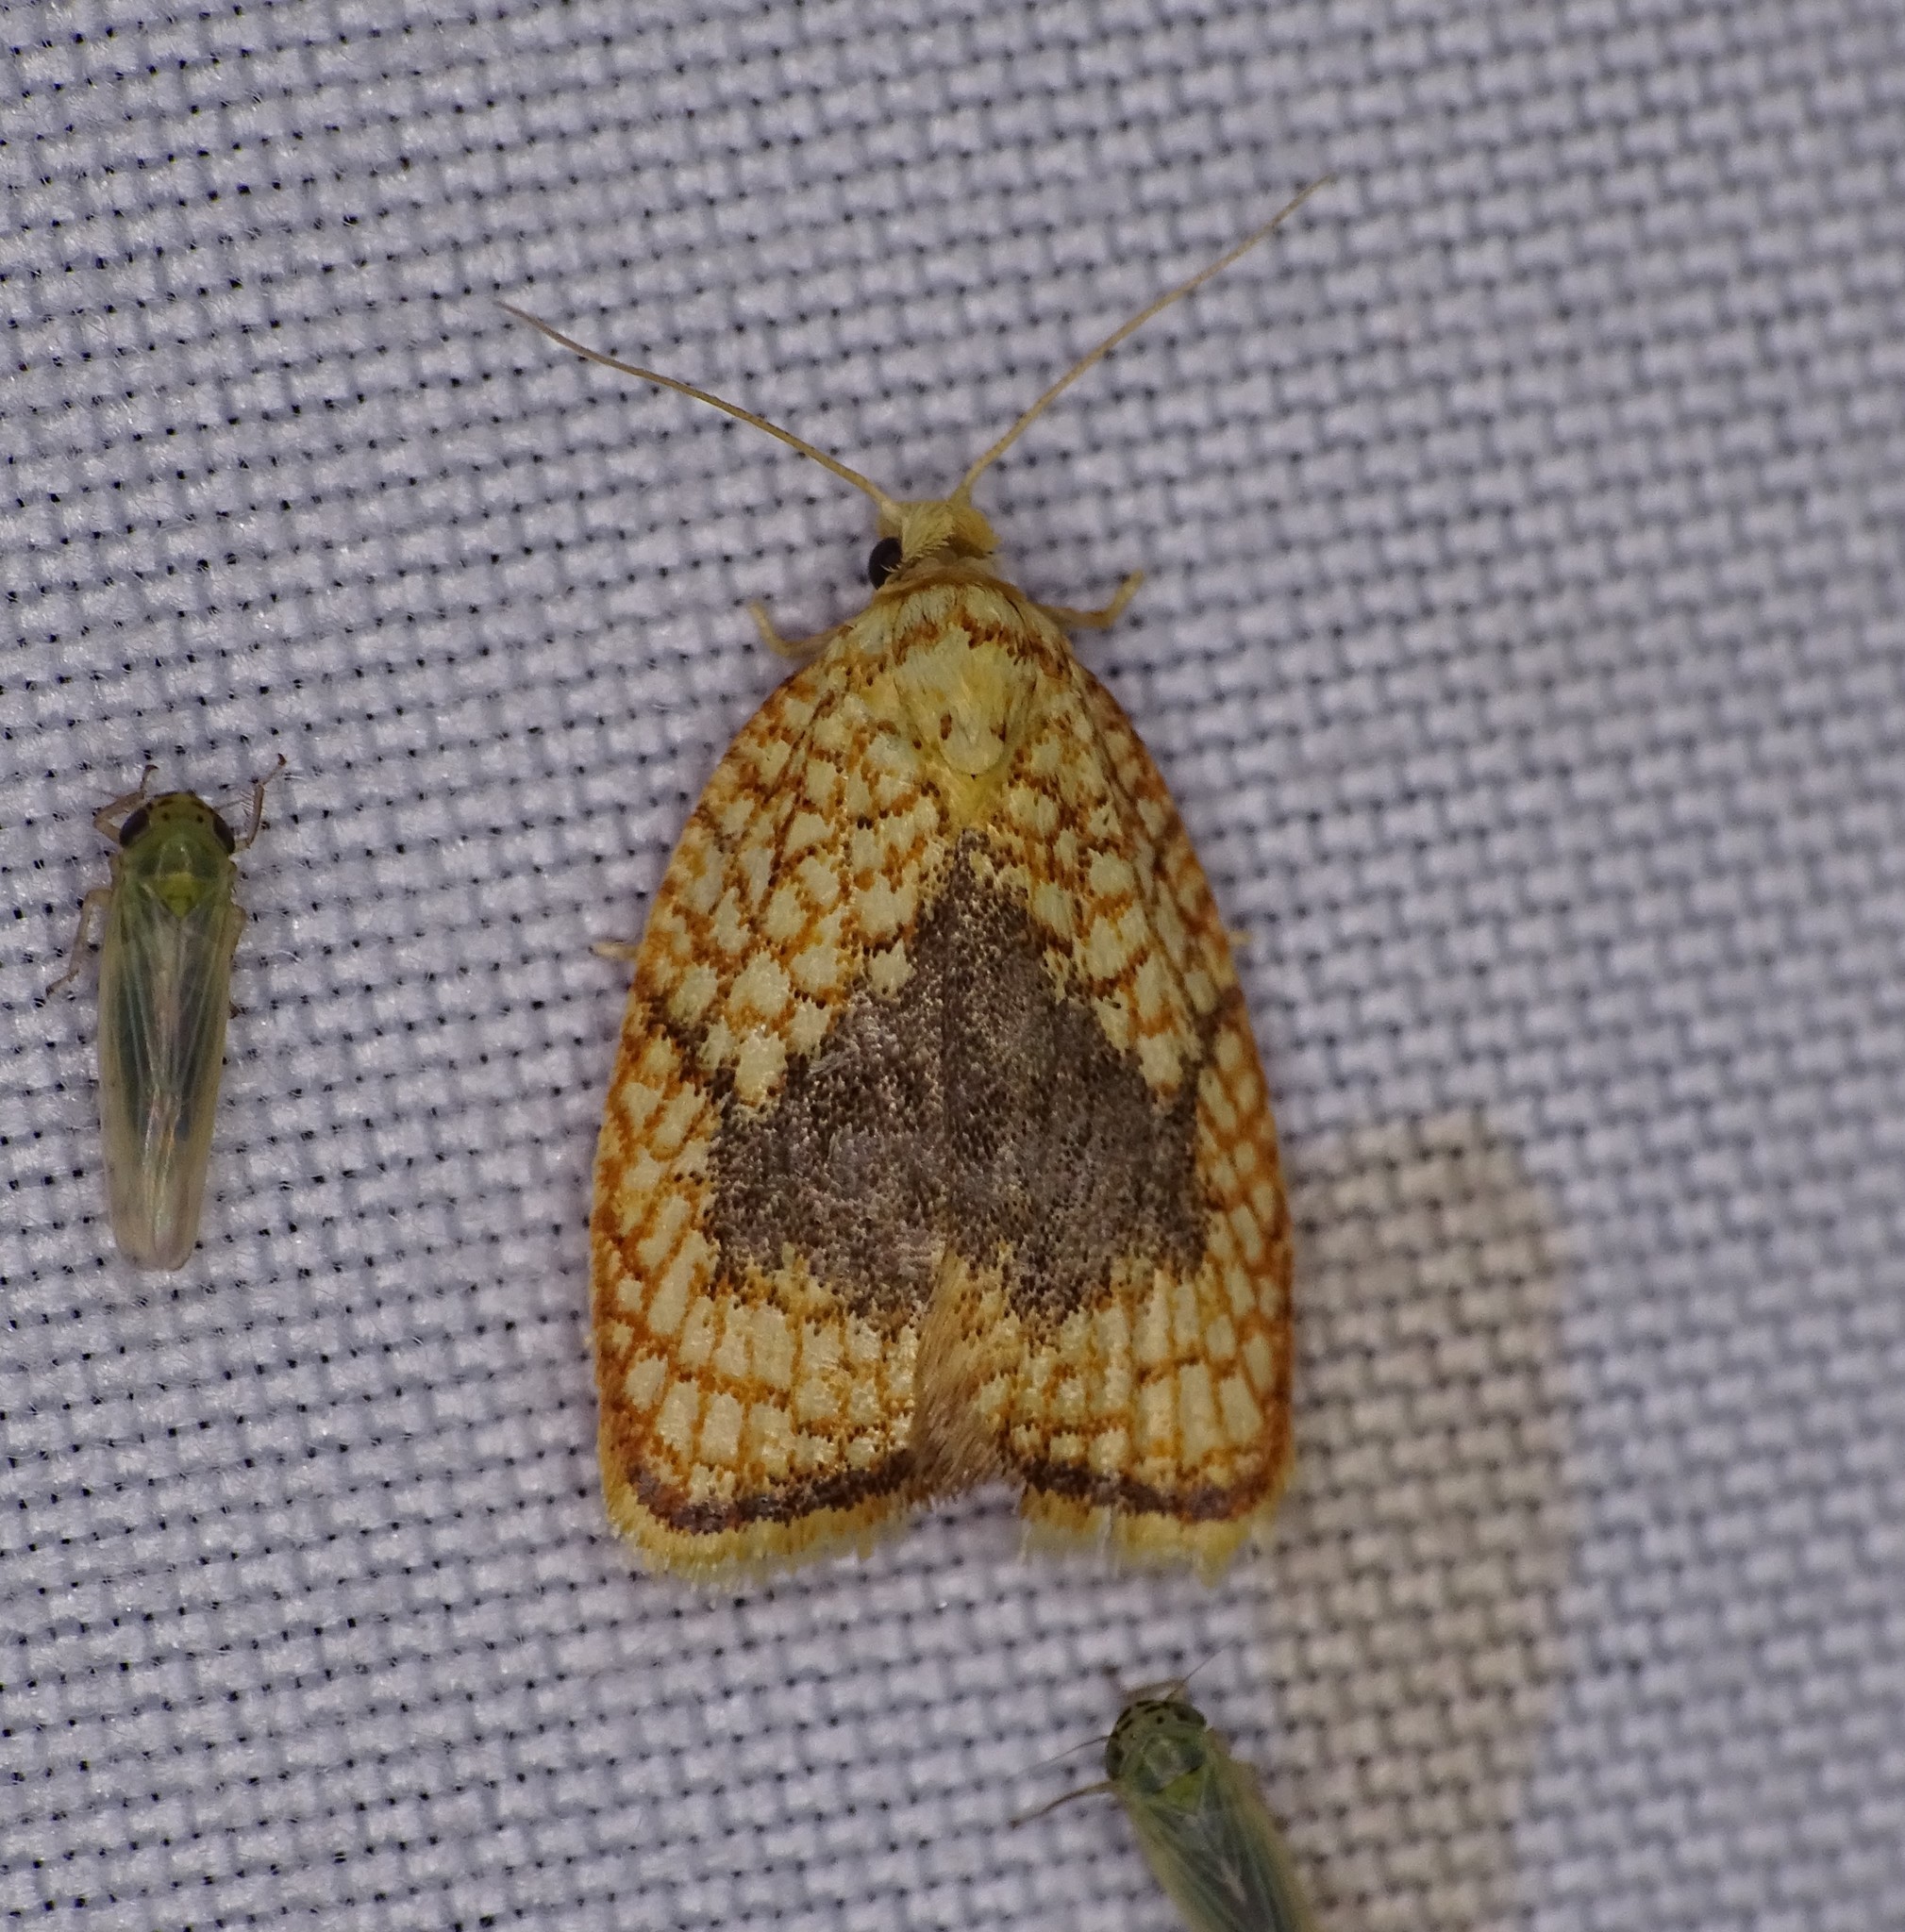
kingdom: Animalia
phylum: Arthropoda
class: Insecta
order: Lepidoptera
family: Tortricidae
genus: Acleris
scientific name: Acleris forsskaleana
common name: Maple button
